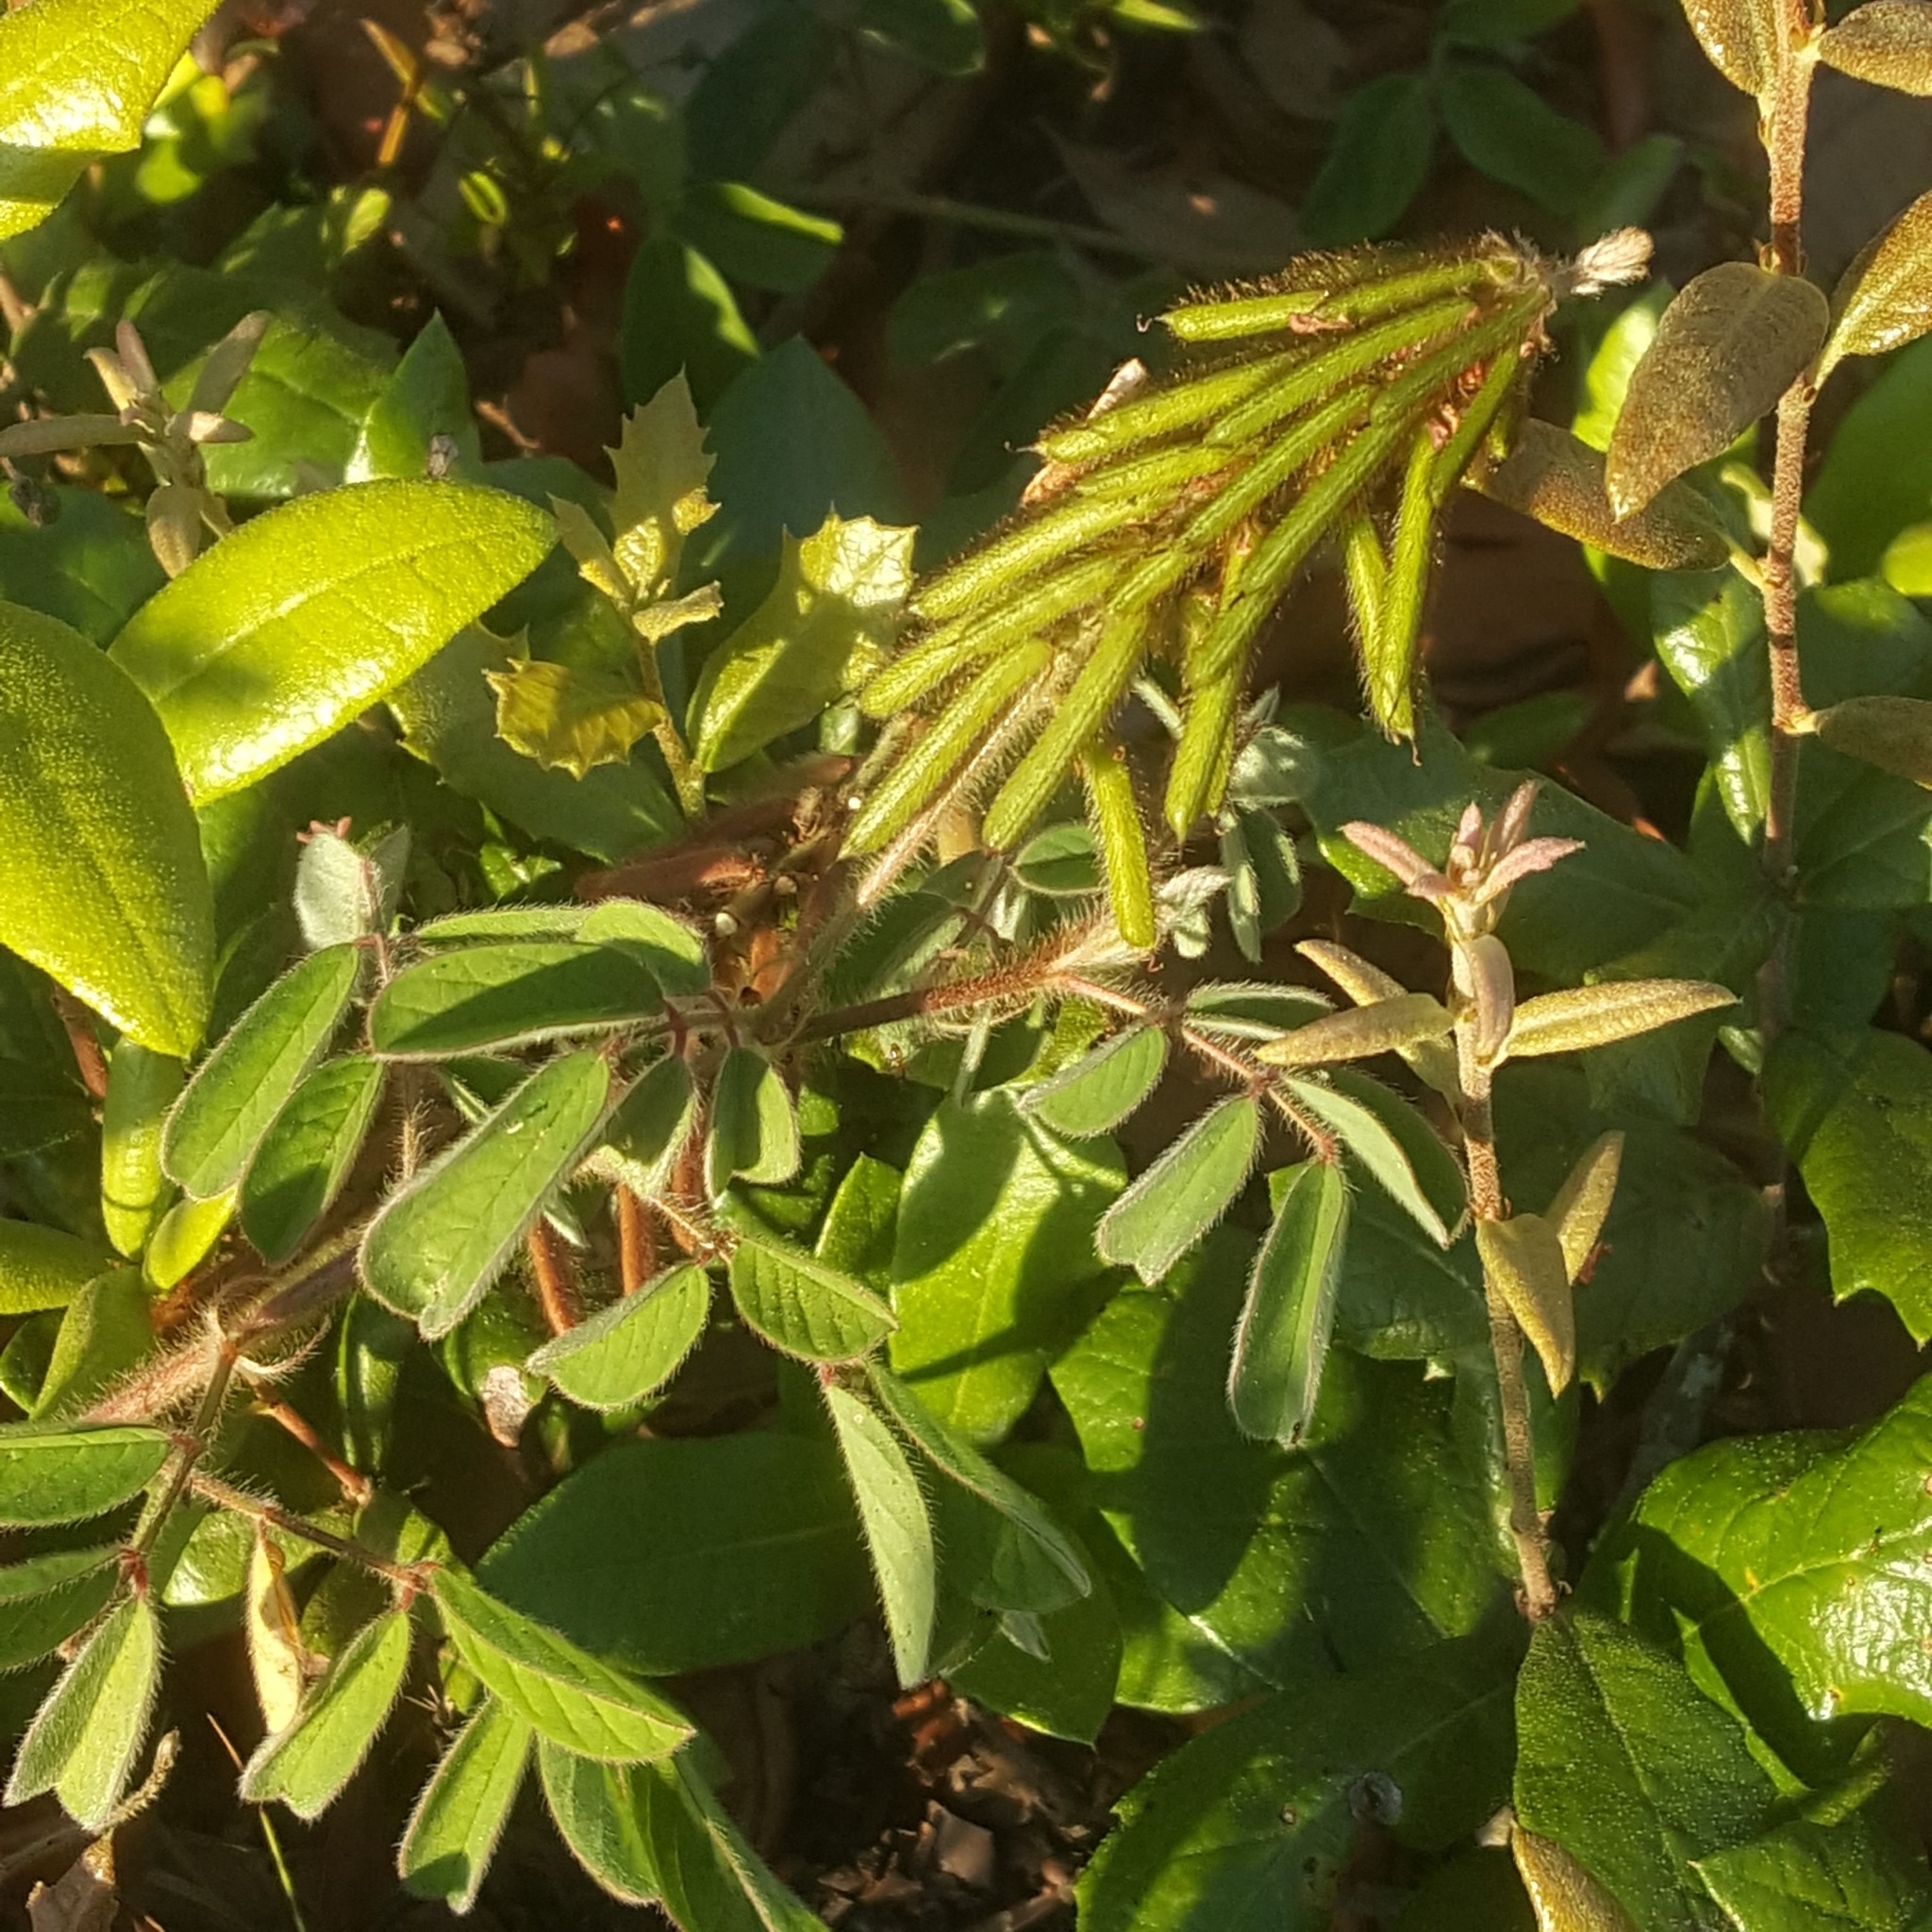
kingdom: Plantae
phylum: Tracheophyta
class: Magnoliopsida
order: Fabales
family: Fabaceae
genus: Indigofera
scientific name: Indigofera hirsuta
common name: Hairy indigo
